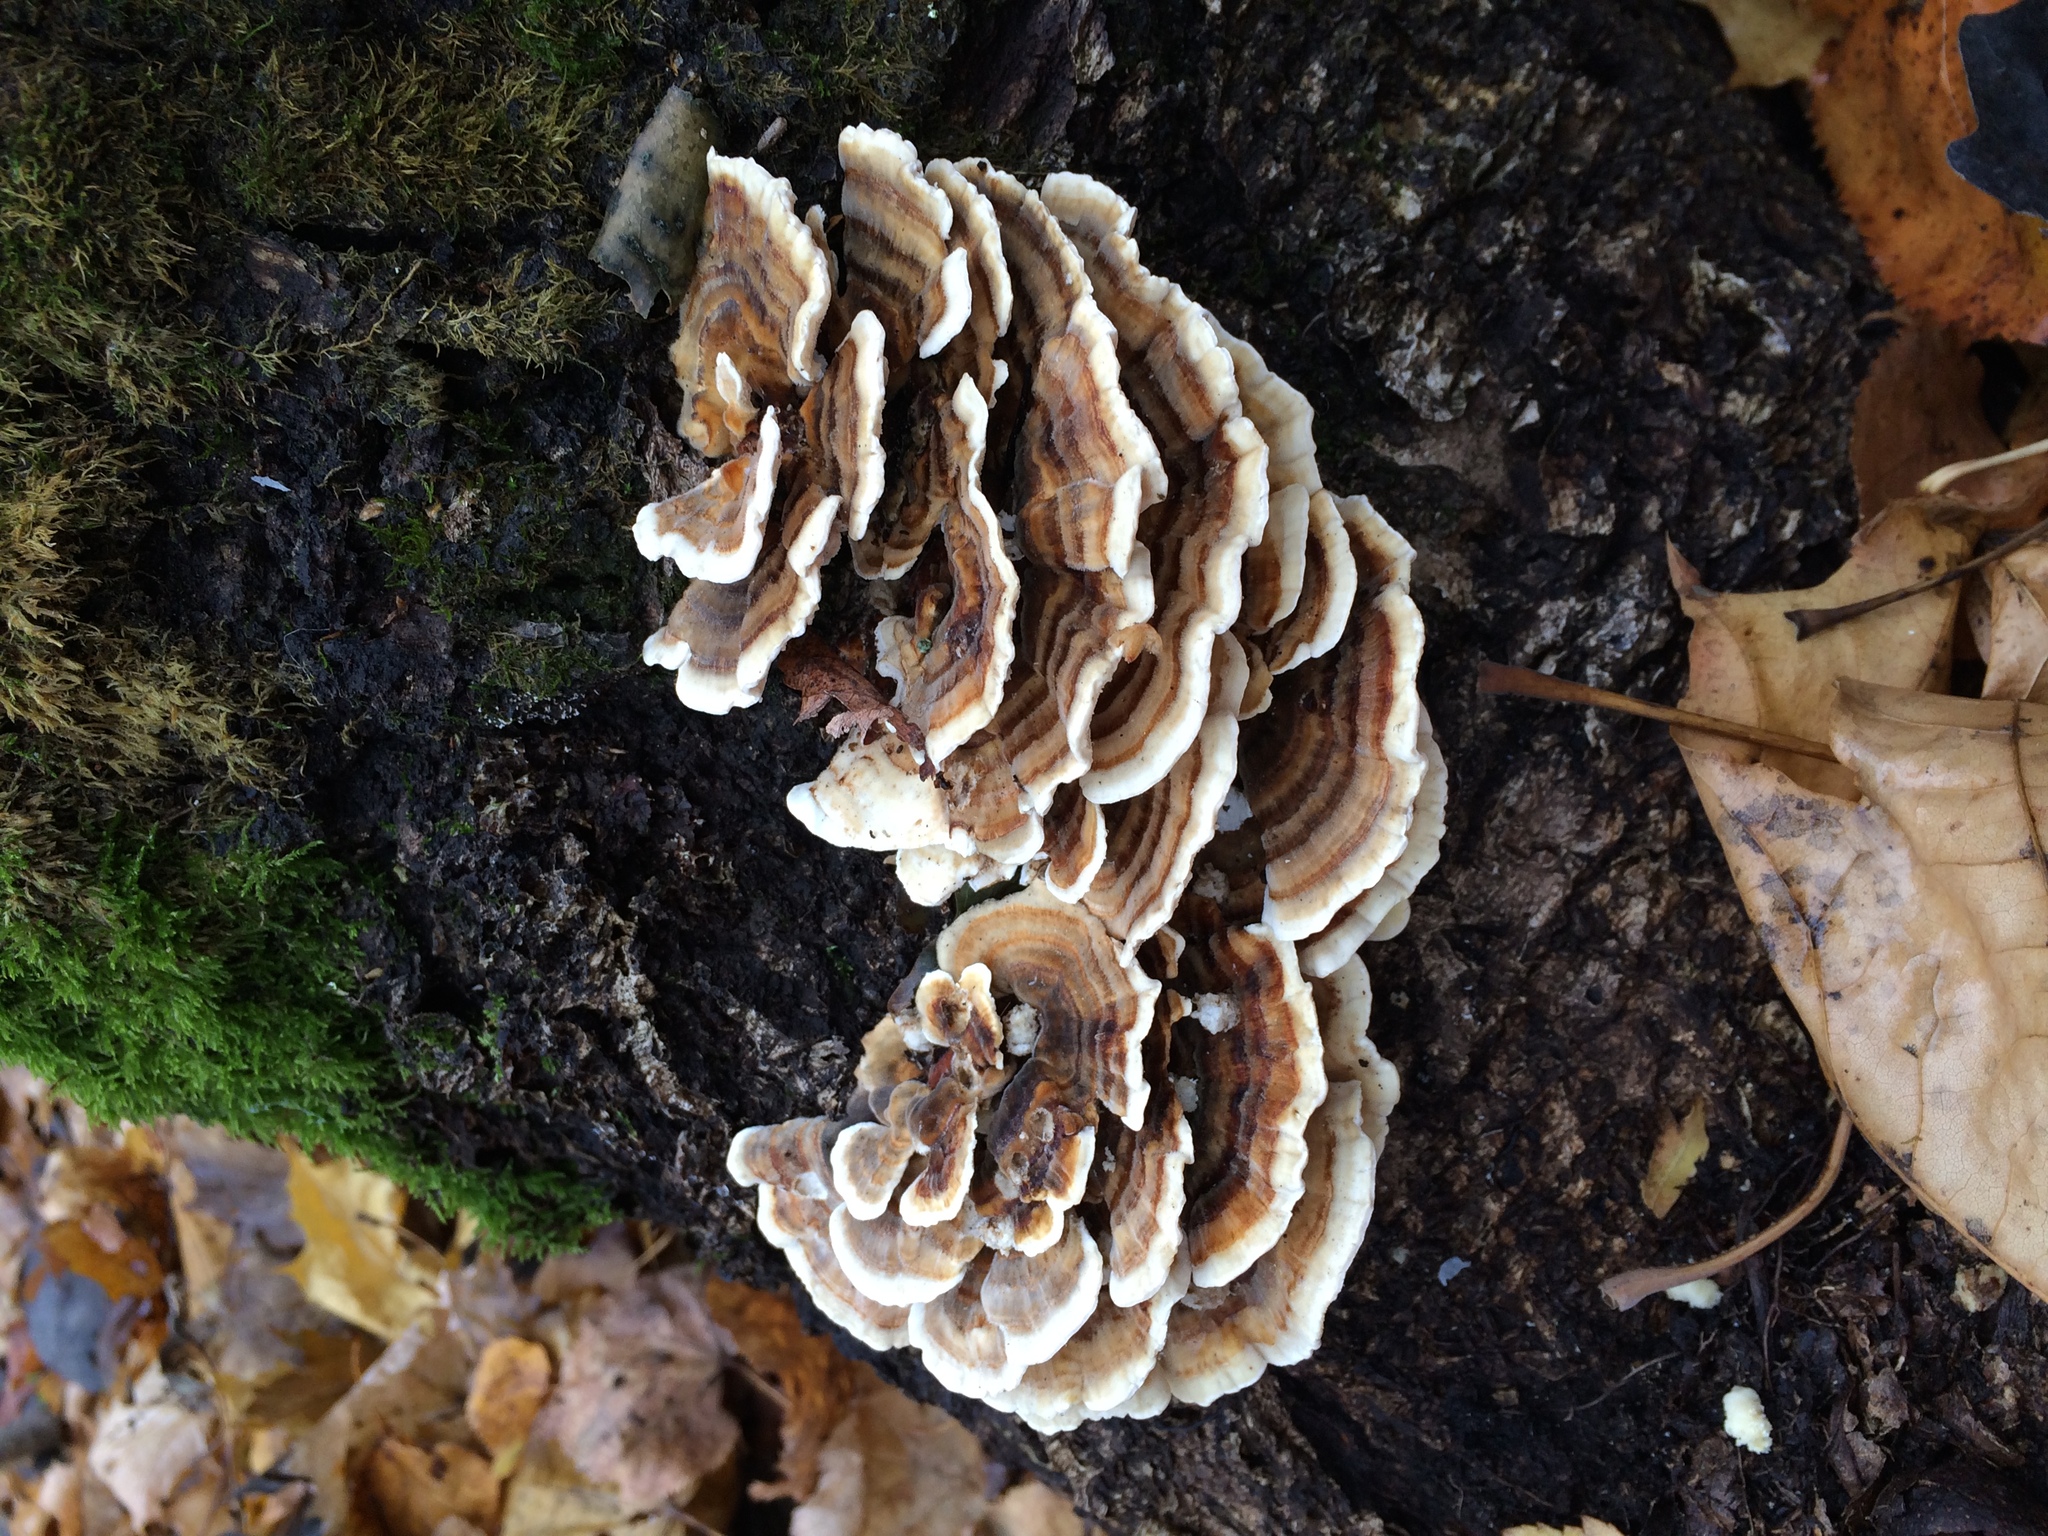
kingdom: Fungi
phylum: Basidiomycota
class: Agaricomycetes
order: Polyporales
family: Polyporaceae
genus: Trametes
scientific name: Trametes versicolor
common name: Turkeytail
